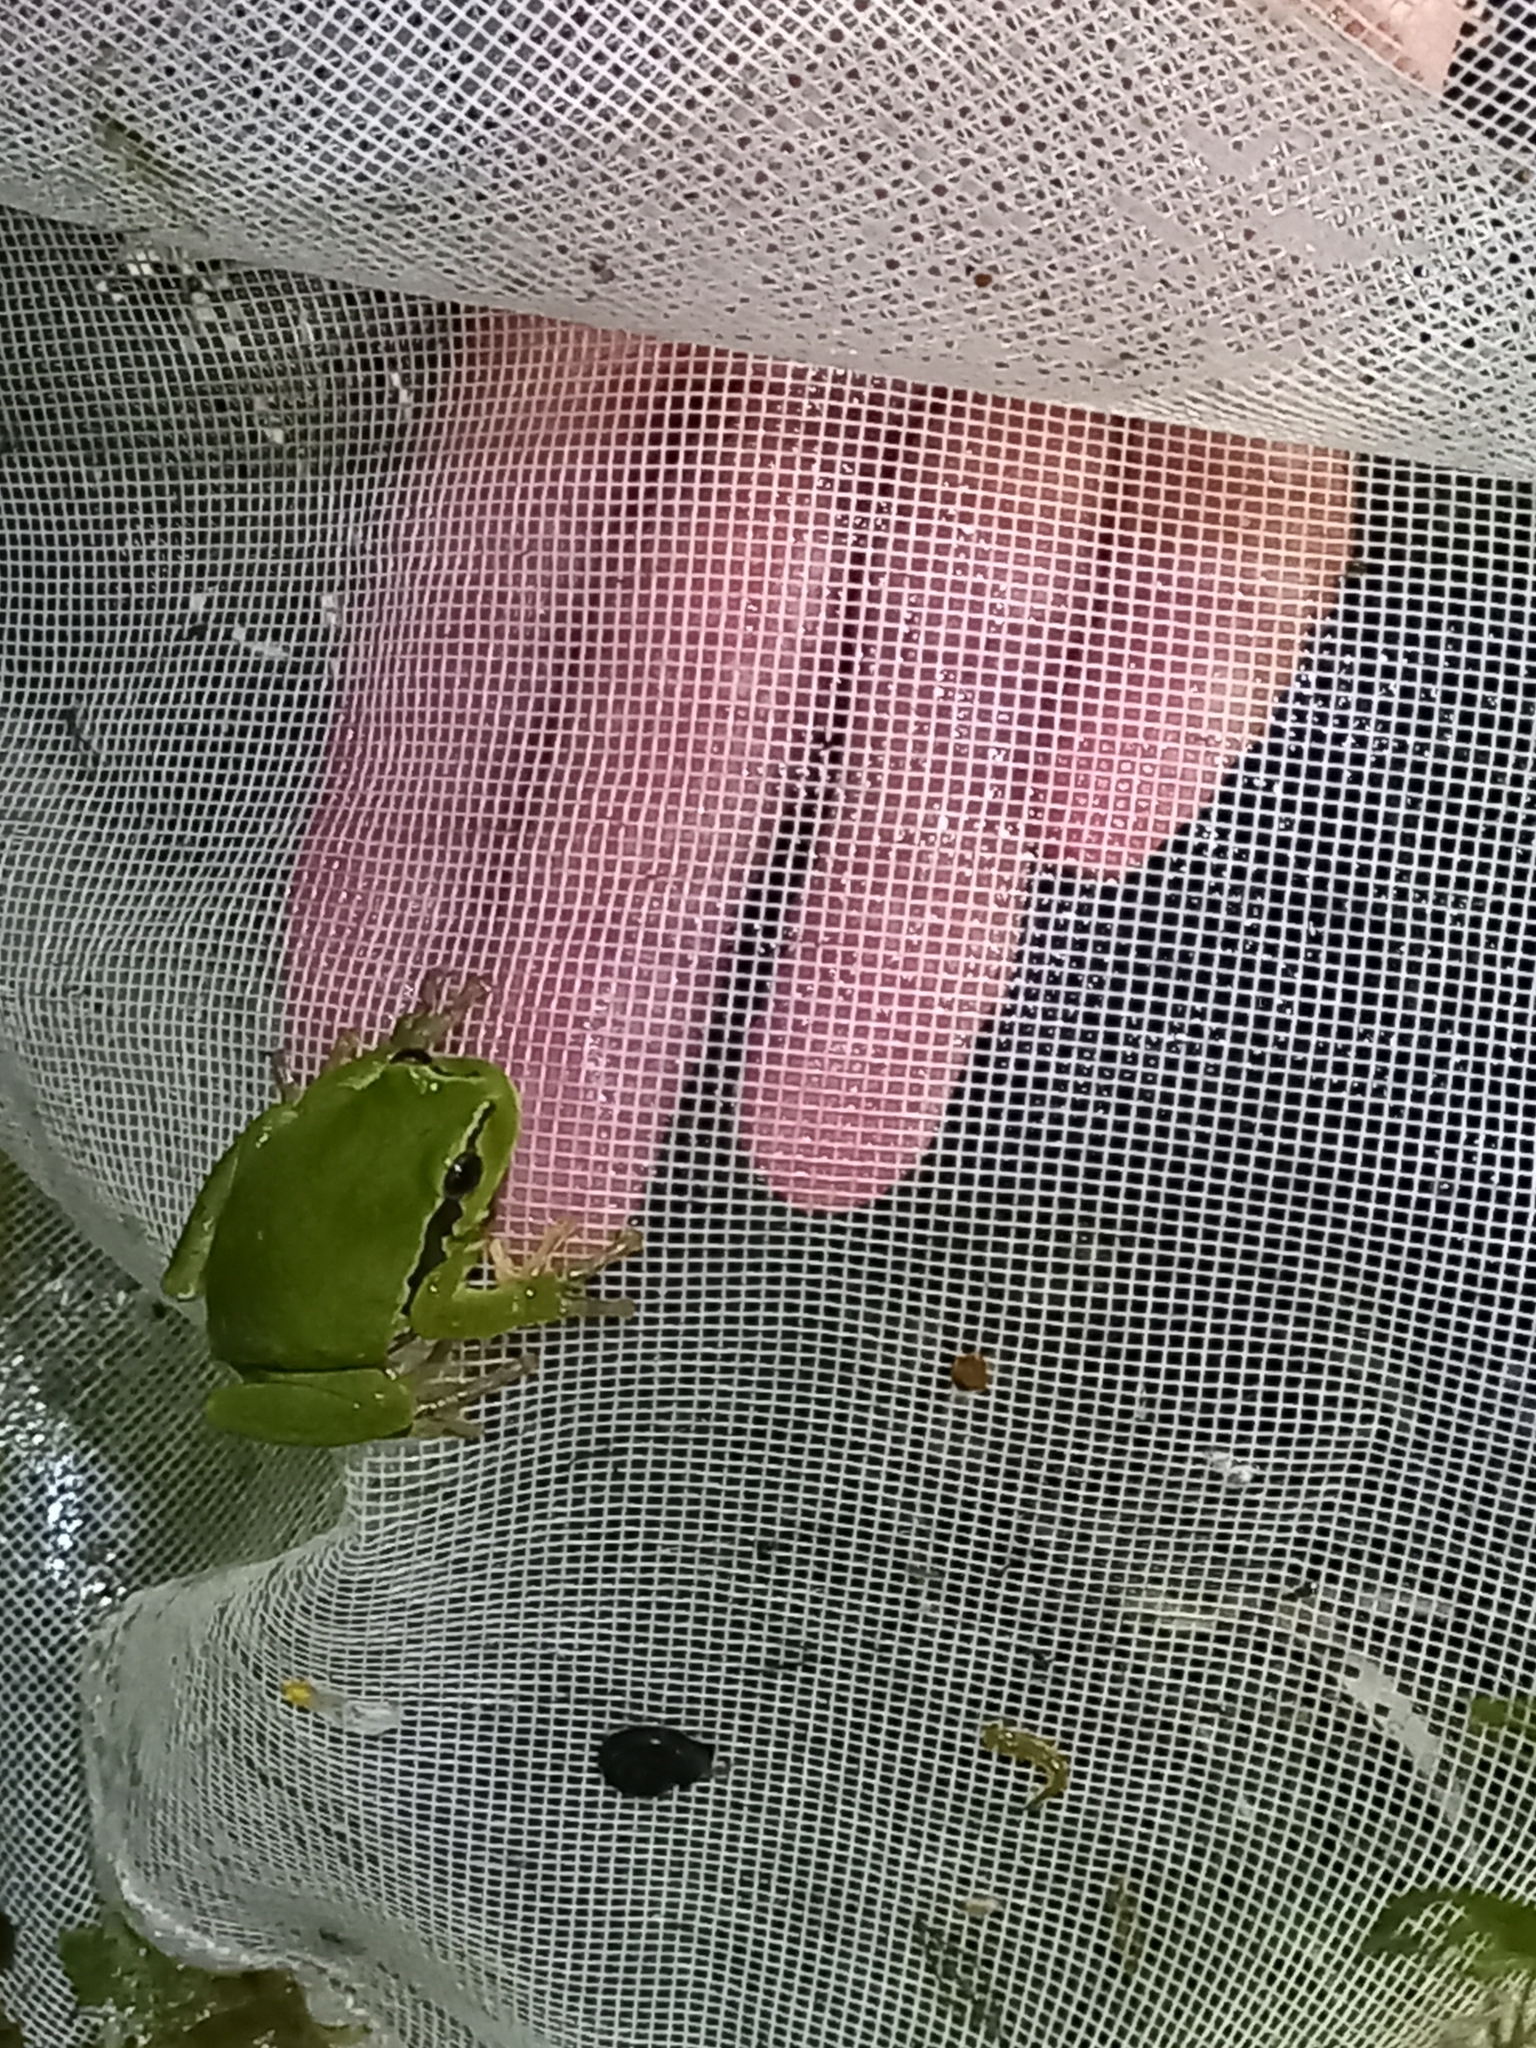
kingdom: Animalia
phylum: Chordata
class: Amphibia
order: Anura
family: Hylidae
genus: Hyla
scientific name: Hyla arborea
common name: Common tree frog
